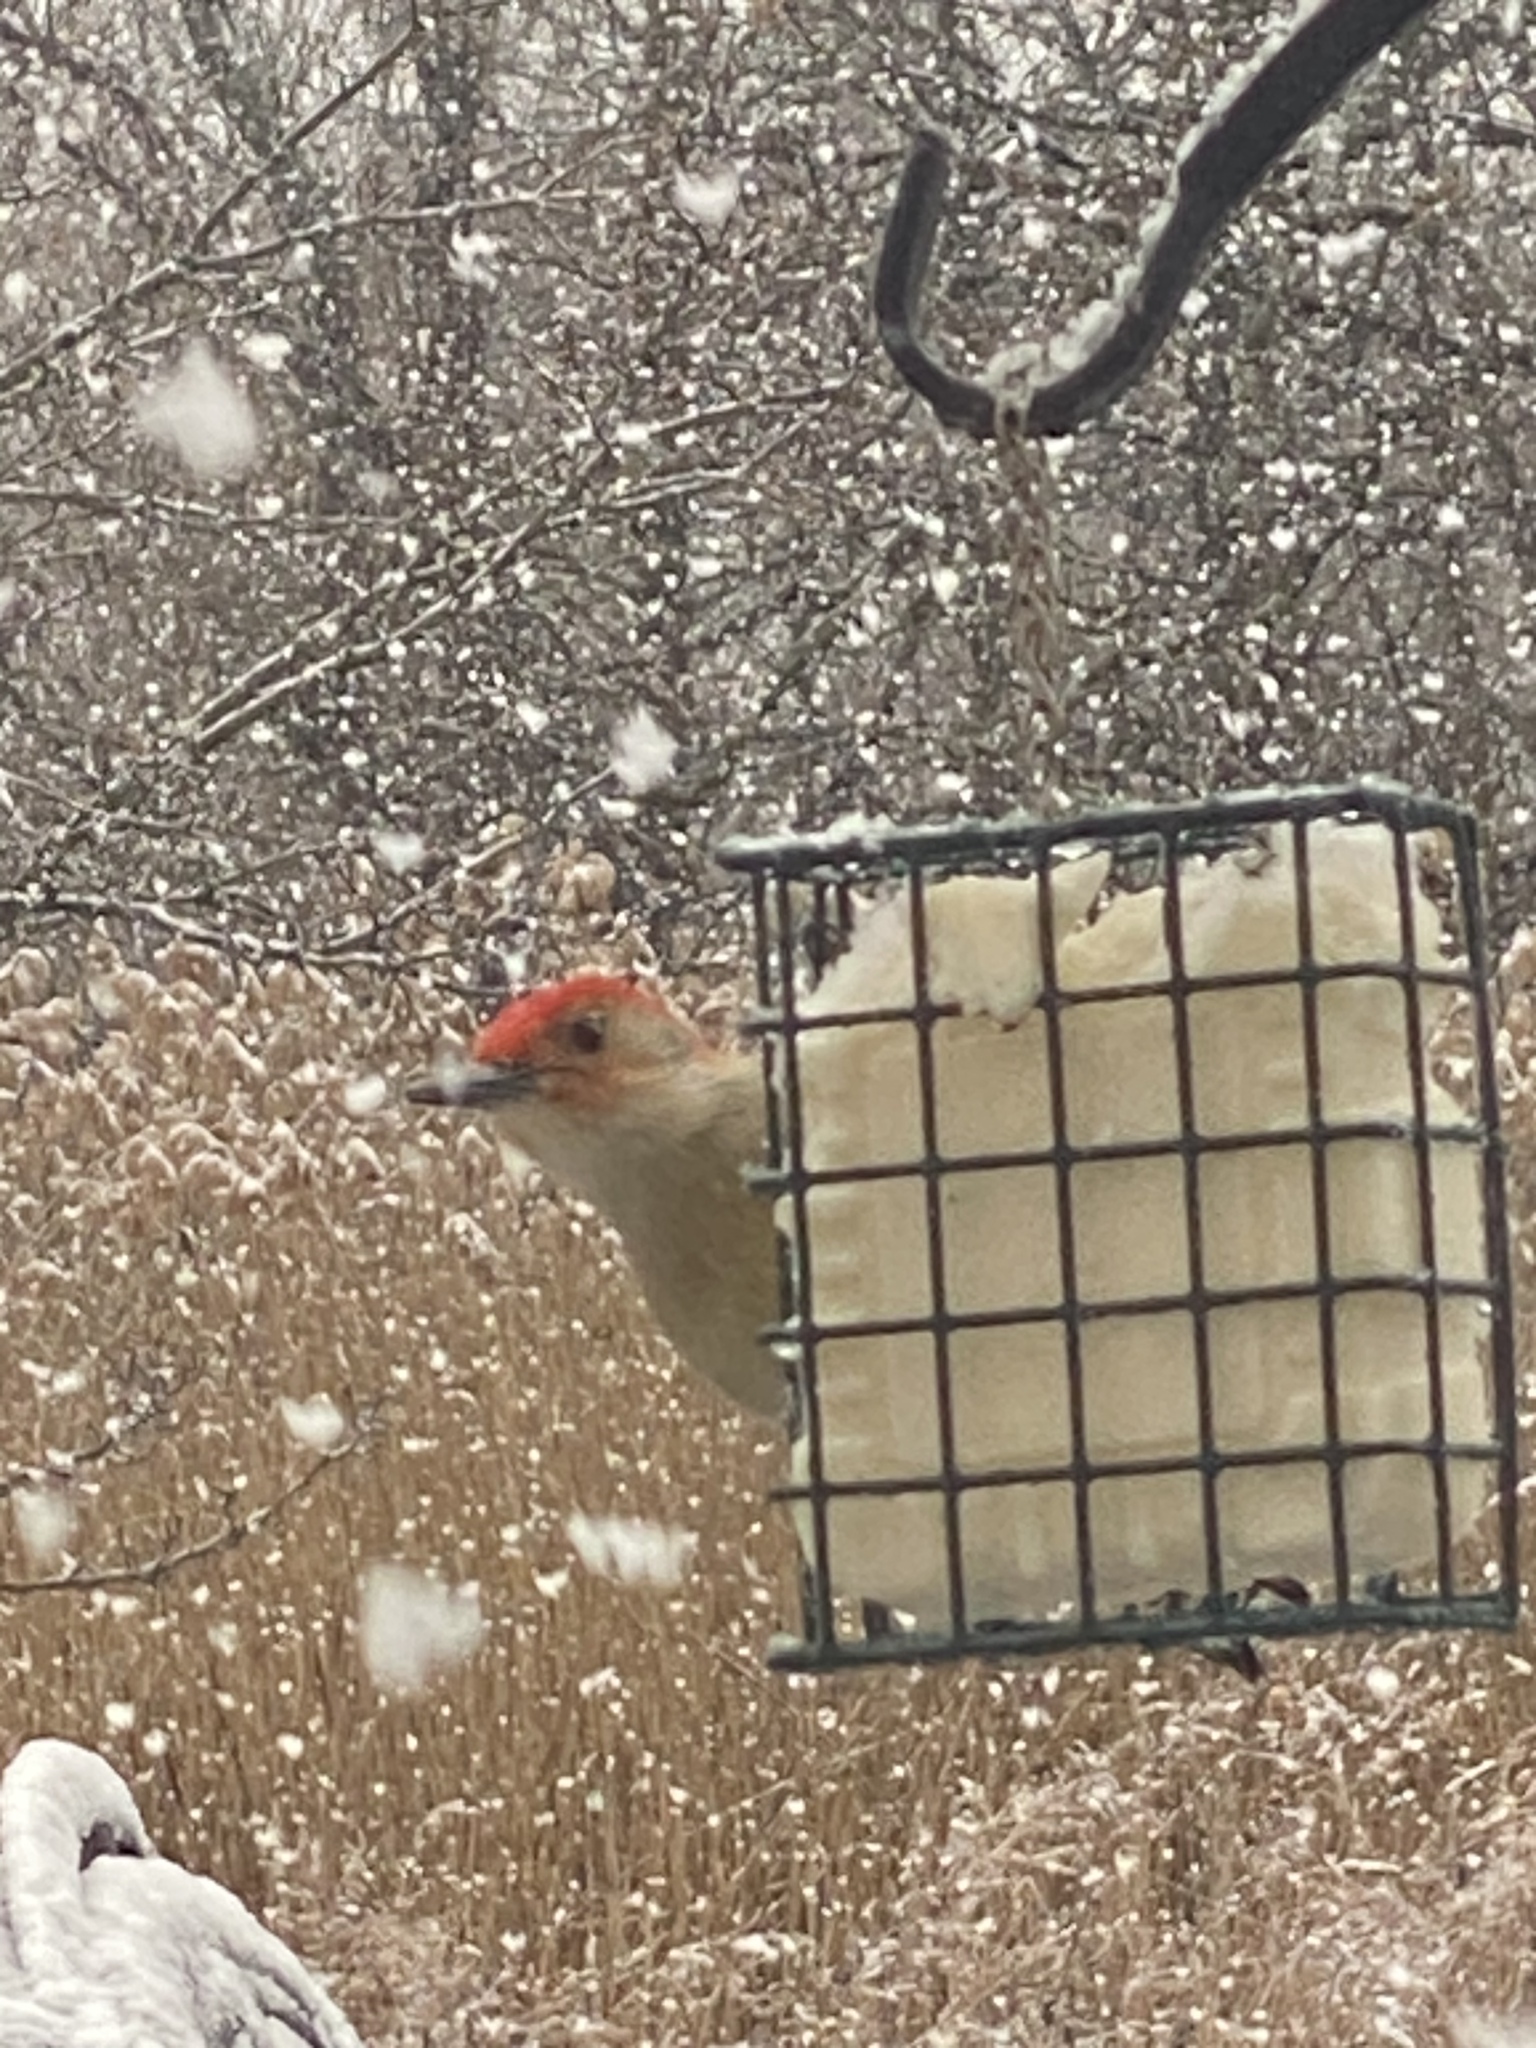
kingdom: Animalia
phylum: Chordata
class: Aves
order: Piciformes
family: Picidae
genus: Melanerpes
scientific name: Melanerpes carolinus
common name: Red-bellied woodpecker
